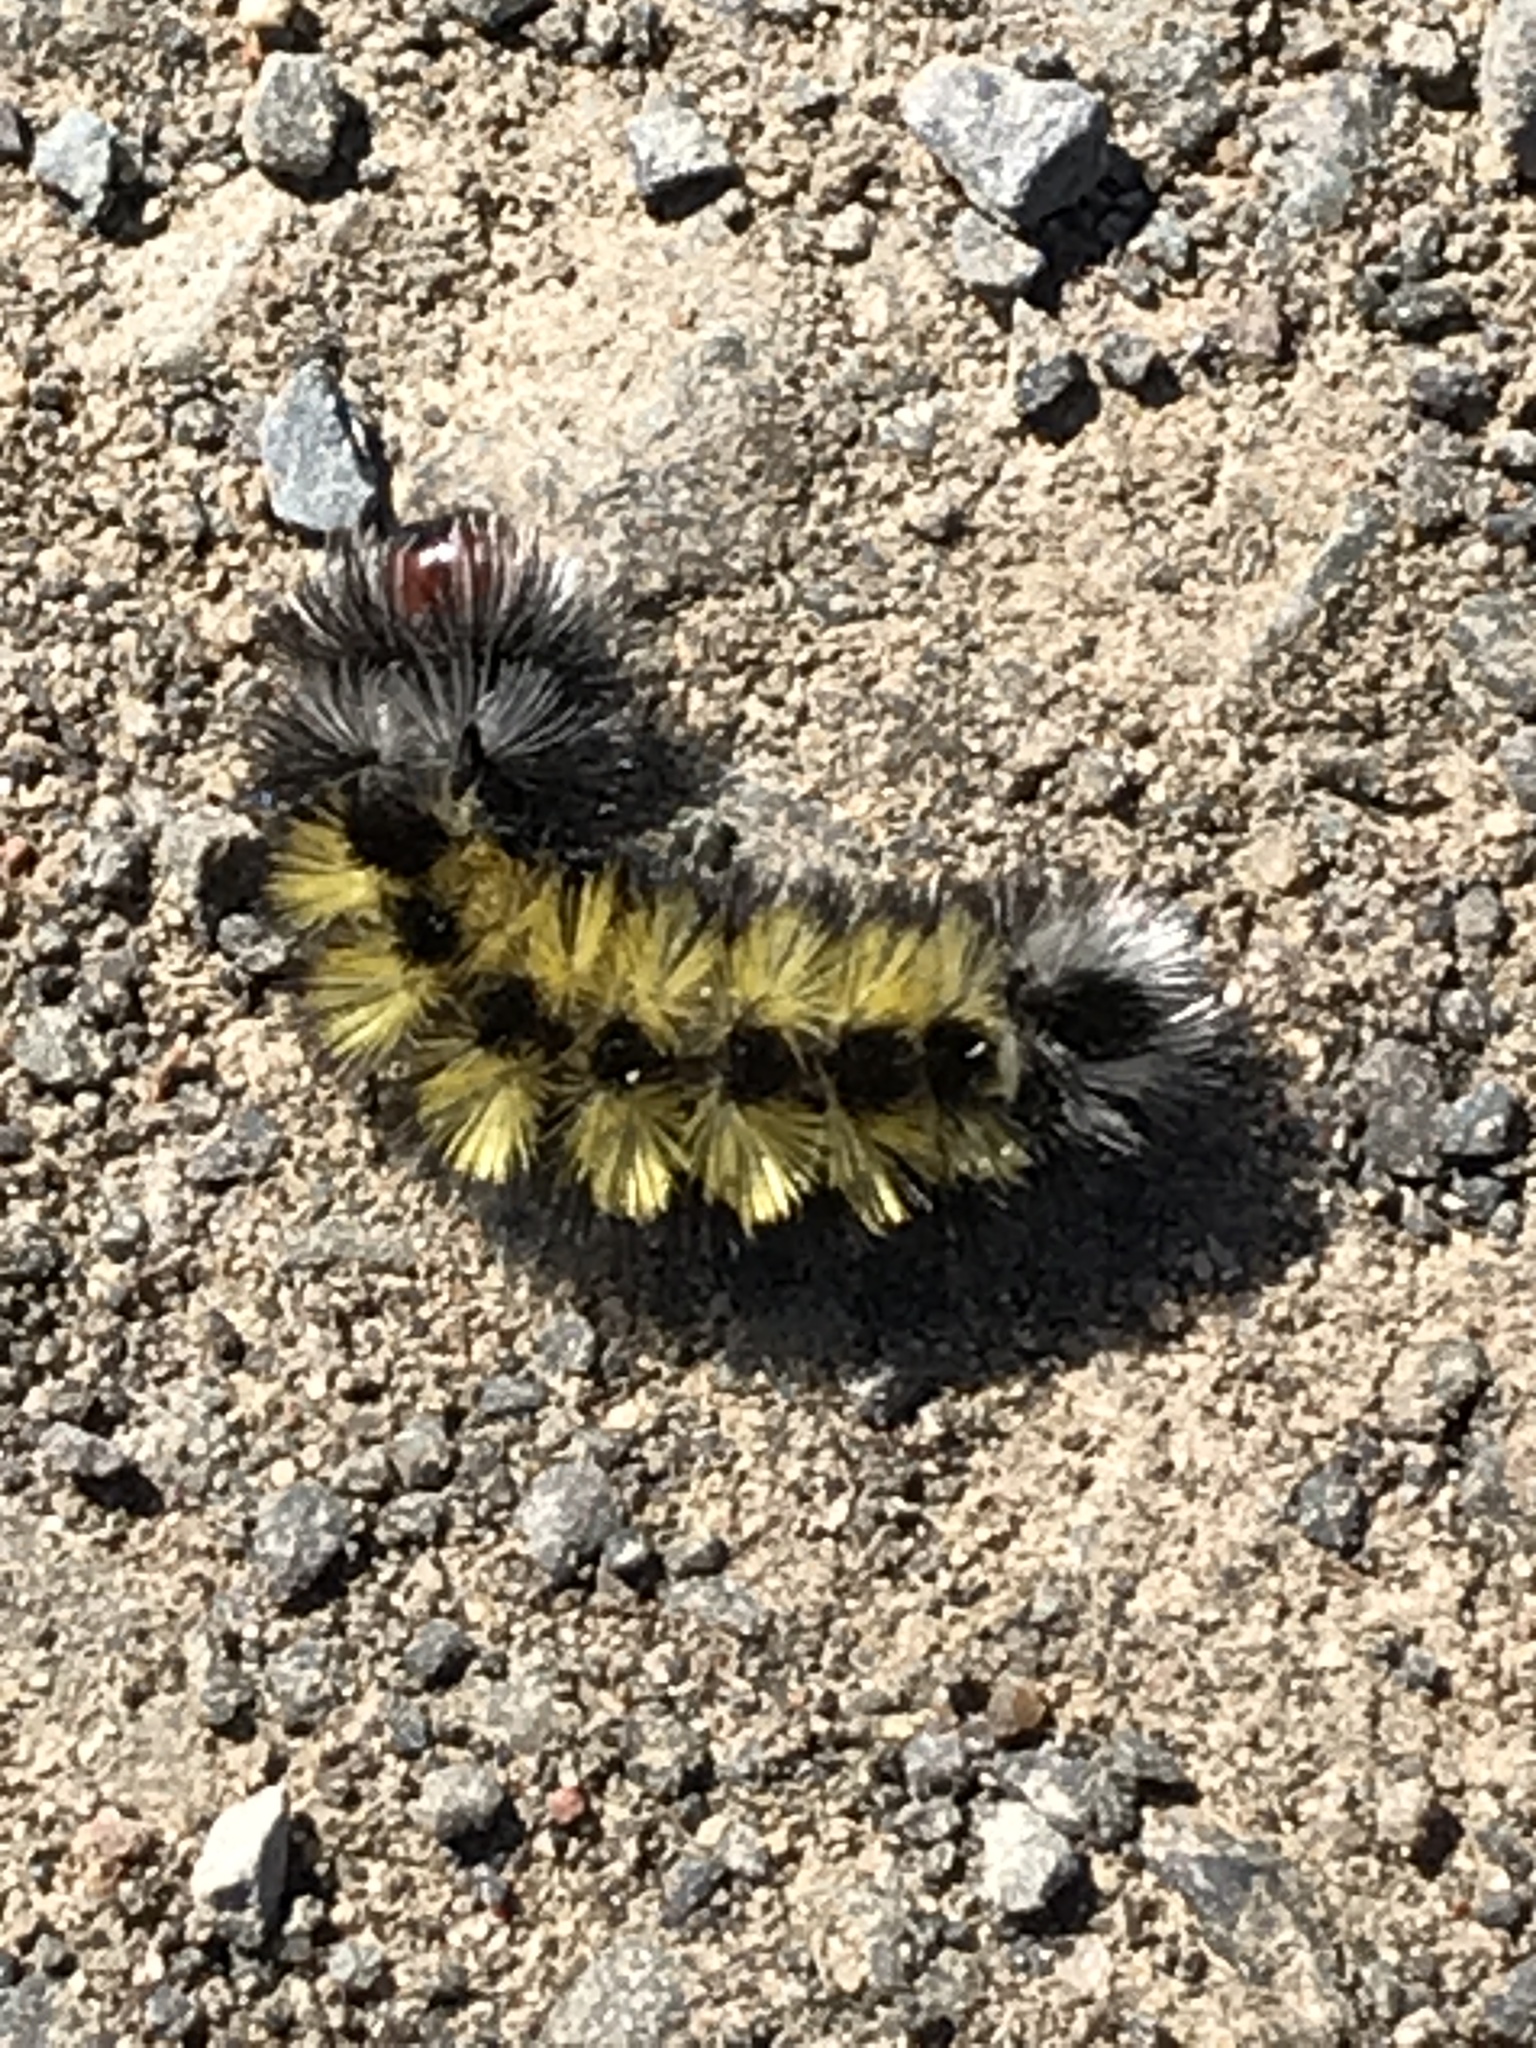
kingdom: Animalia
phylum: Arthropoda
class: Insecta
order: Lepidoptera
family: Erebidae
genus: Ctenucha
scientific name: Ctenucha virginica
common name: Virginia ctenucha moth
